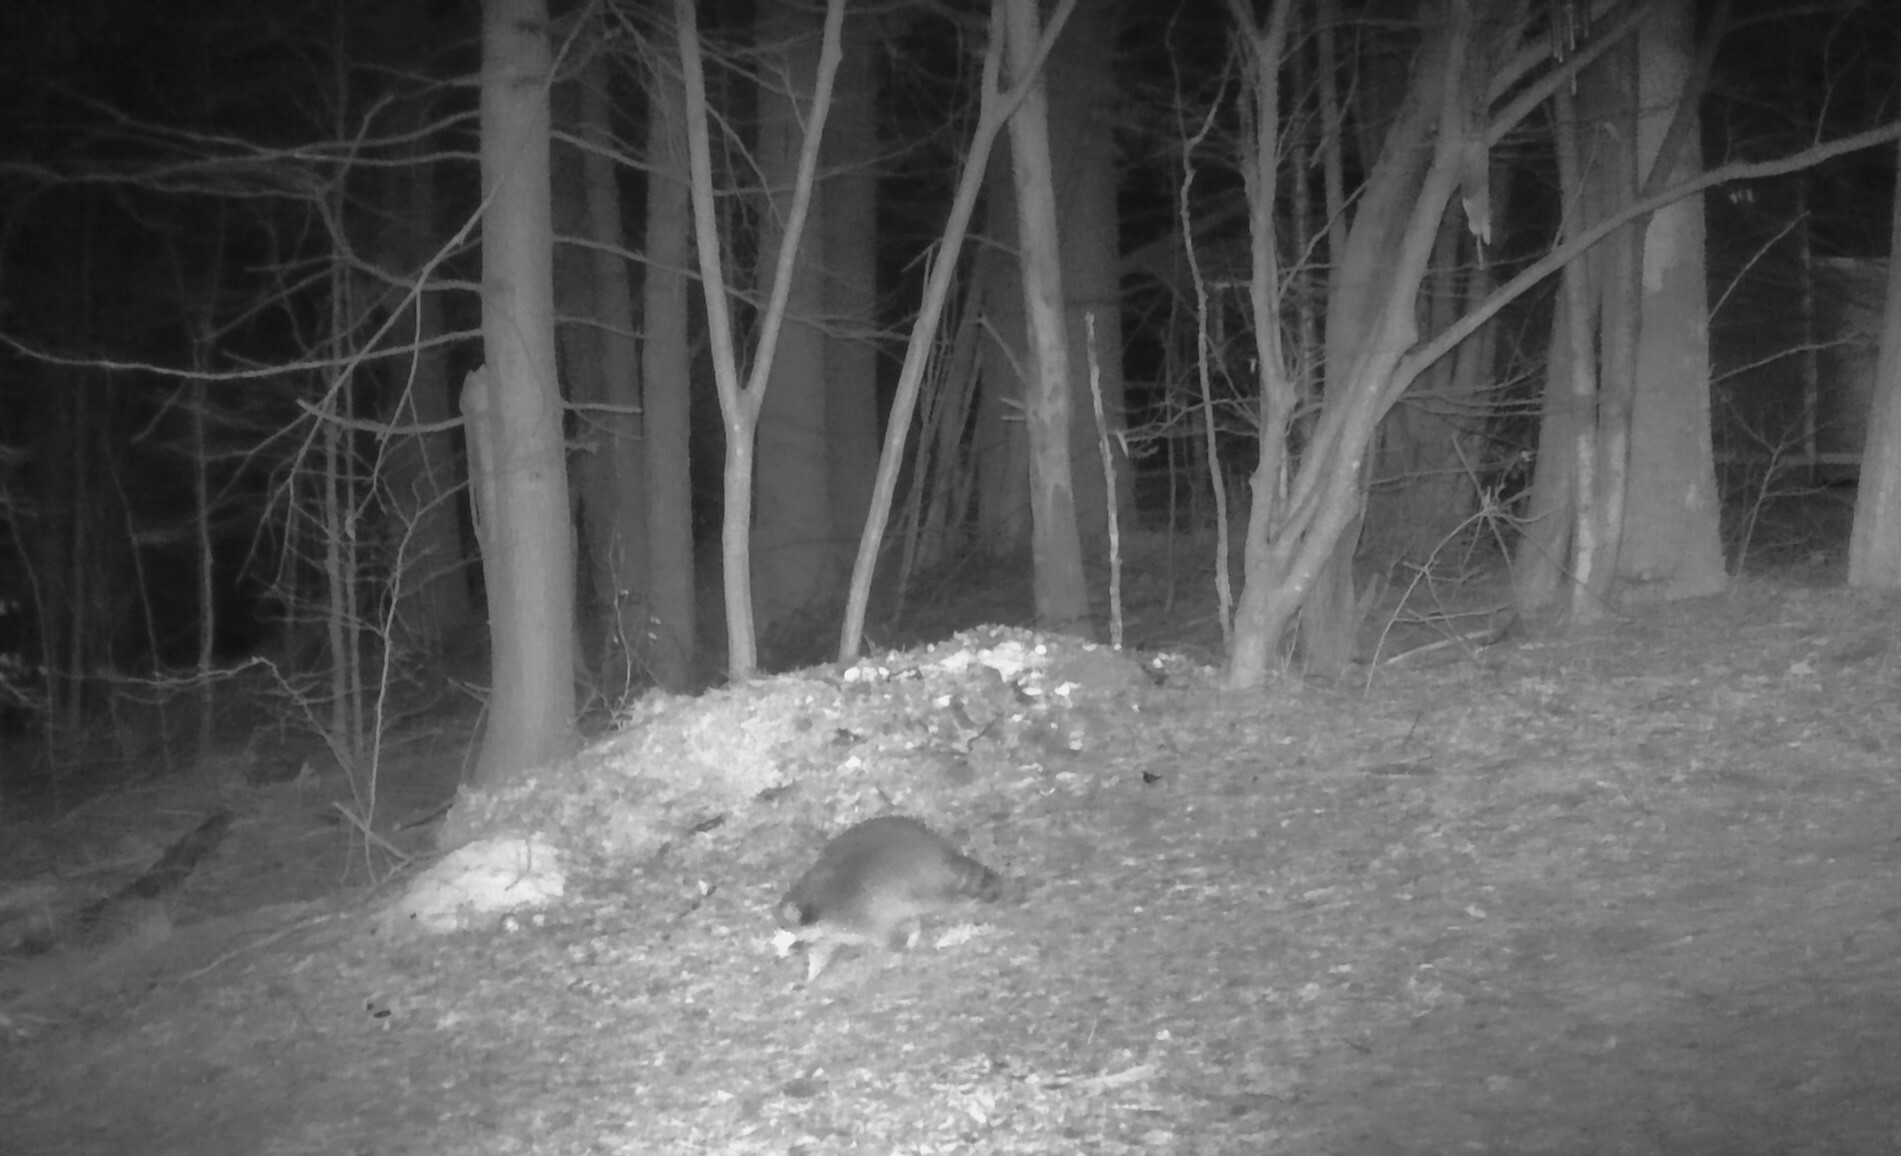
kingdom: Animalia
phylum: Chordata
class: Mammalia
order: Carnivora
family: Procyonidae
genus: Procyon
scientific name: Procyon lotor
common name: Raccoon
